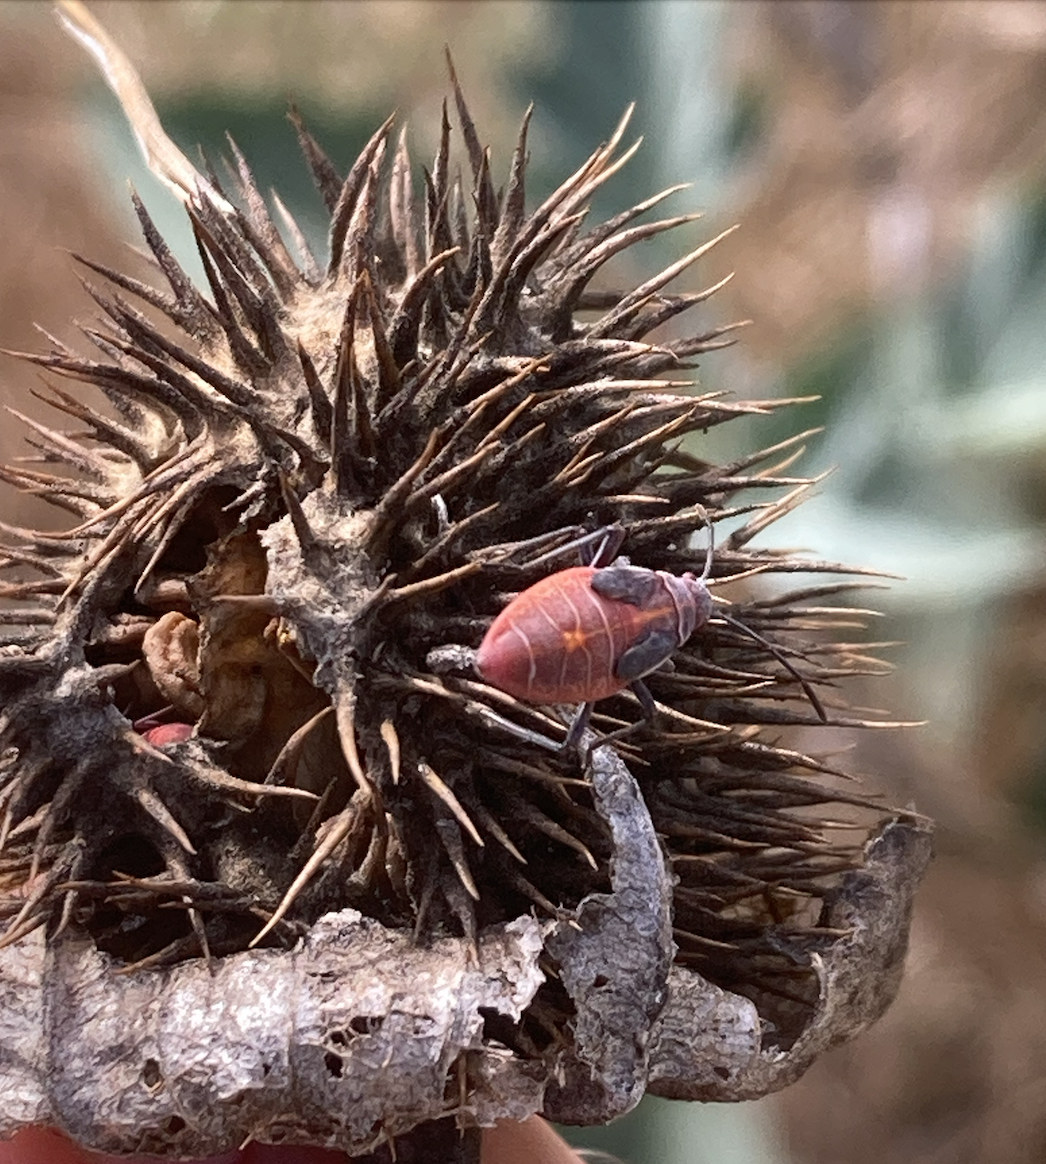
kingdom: Animalia
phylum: Arthropoda
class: Insecta
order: Hemiptera
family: Rhopalidae
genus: Boisea
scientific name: Boisea rubrolineata
